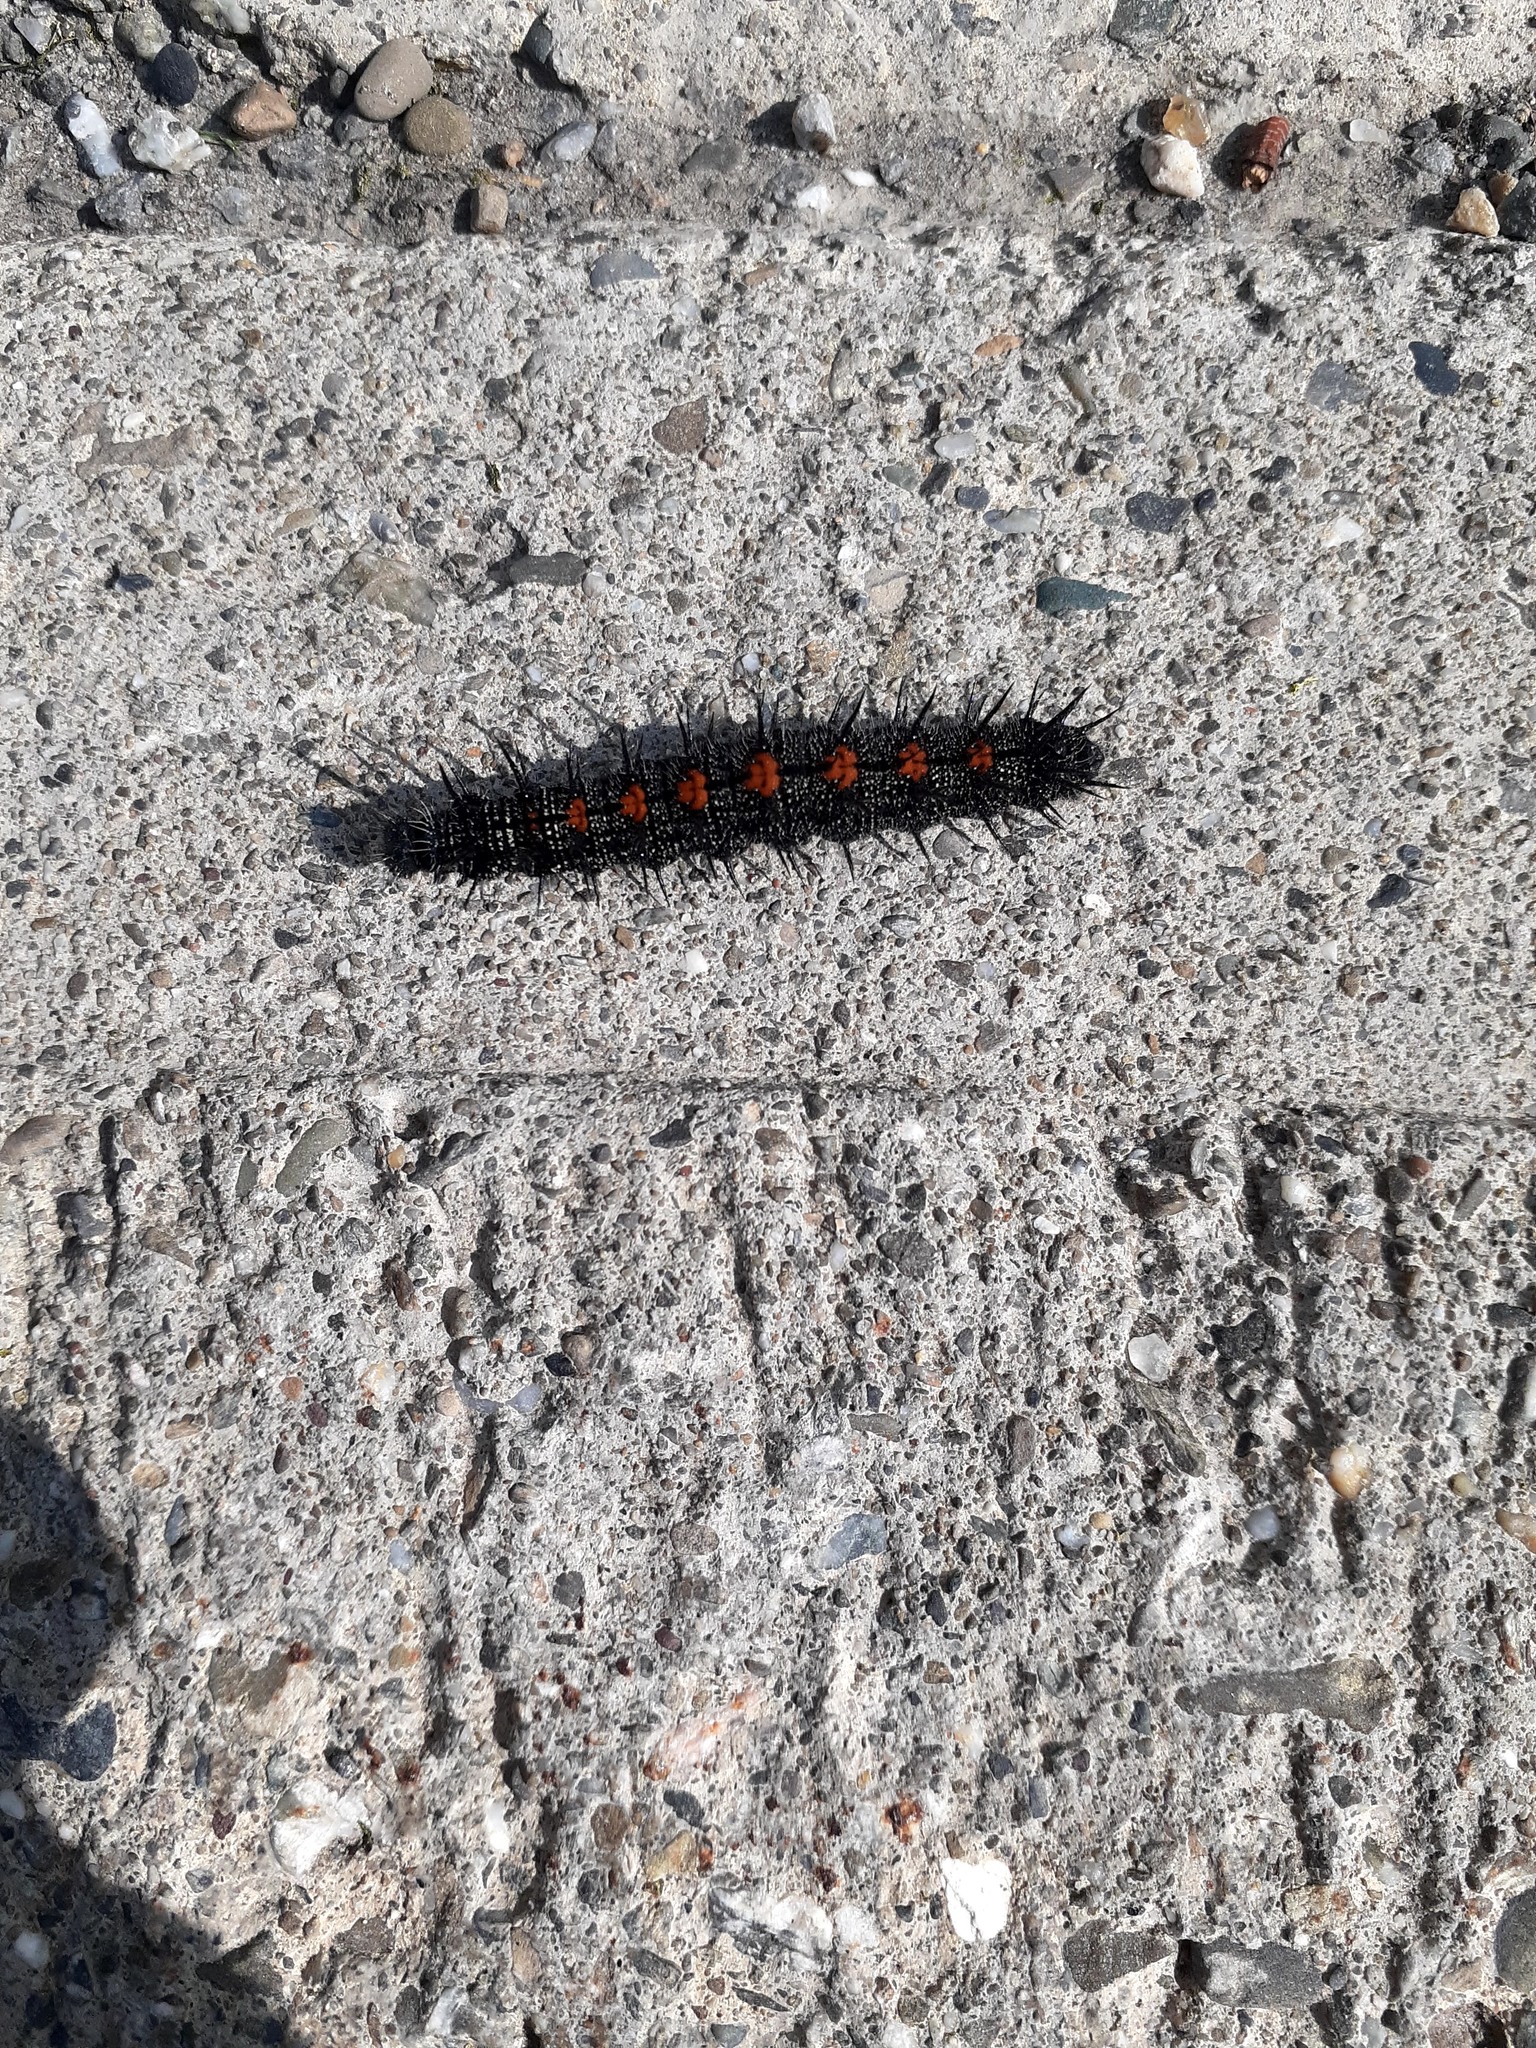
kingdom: Animalia
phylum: Arthropoda
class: Insecta
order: Lepidoptera
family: Nymphalidae
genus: Nymphalis
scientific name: Nymphalis antiopa
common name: Camberwell beauty
